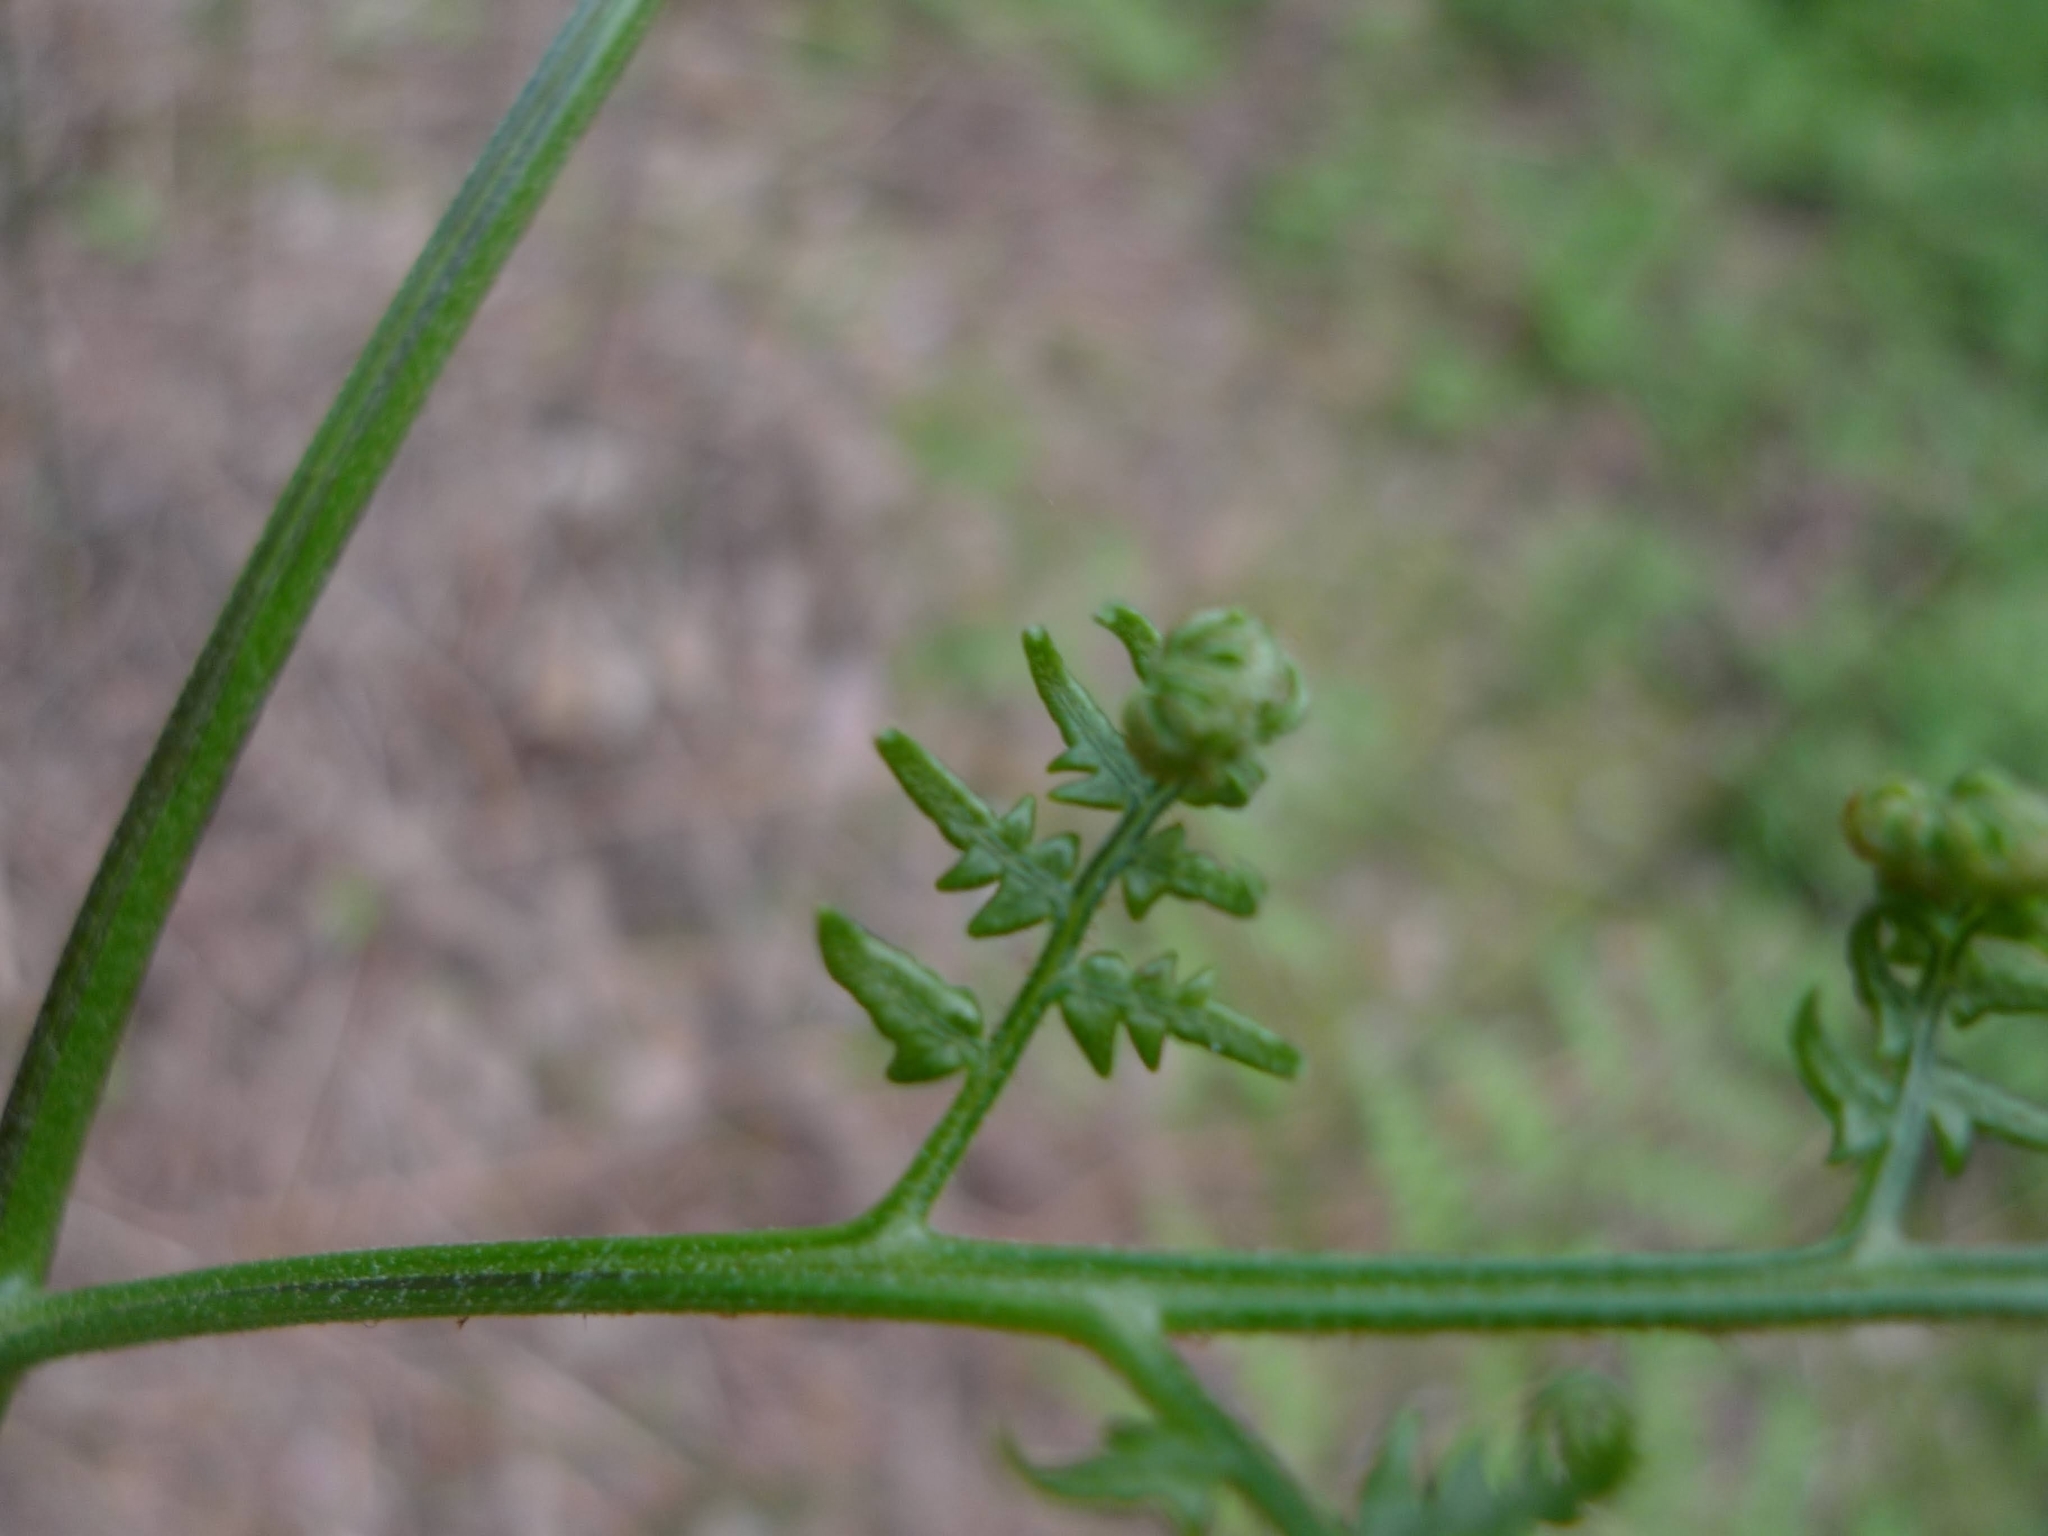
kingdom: Plantae
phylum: Tracheophyta
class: Polypodiopsida
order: Polypodiales
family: Dennstaedtiaceae
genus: Pteridium
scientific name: Pteridium aquilinum
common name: Bracken
